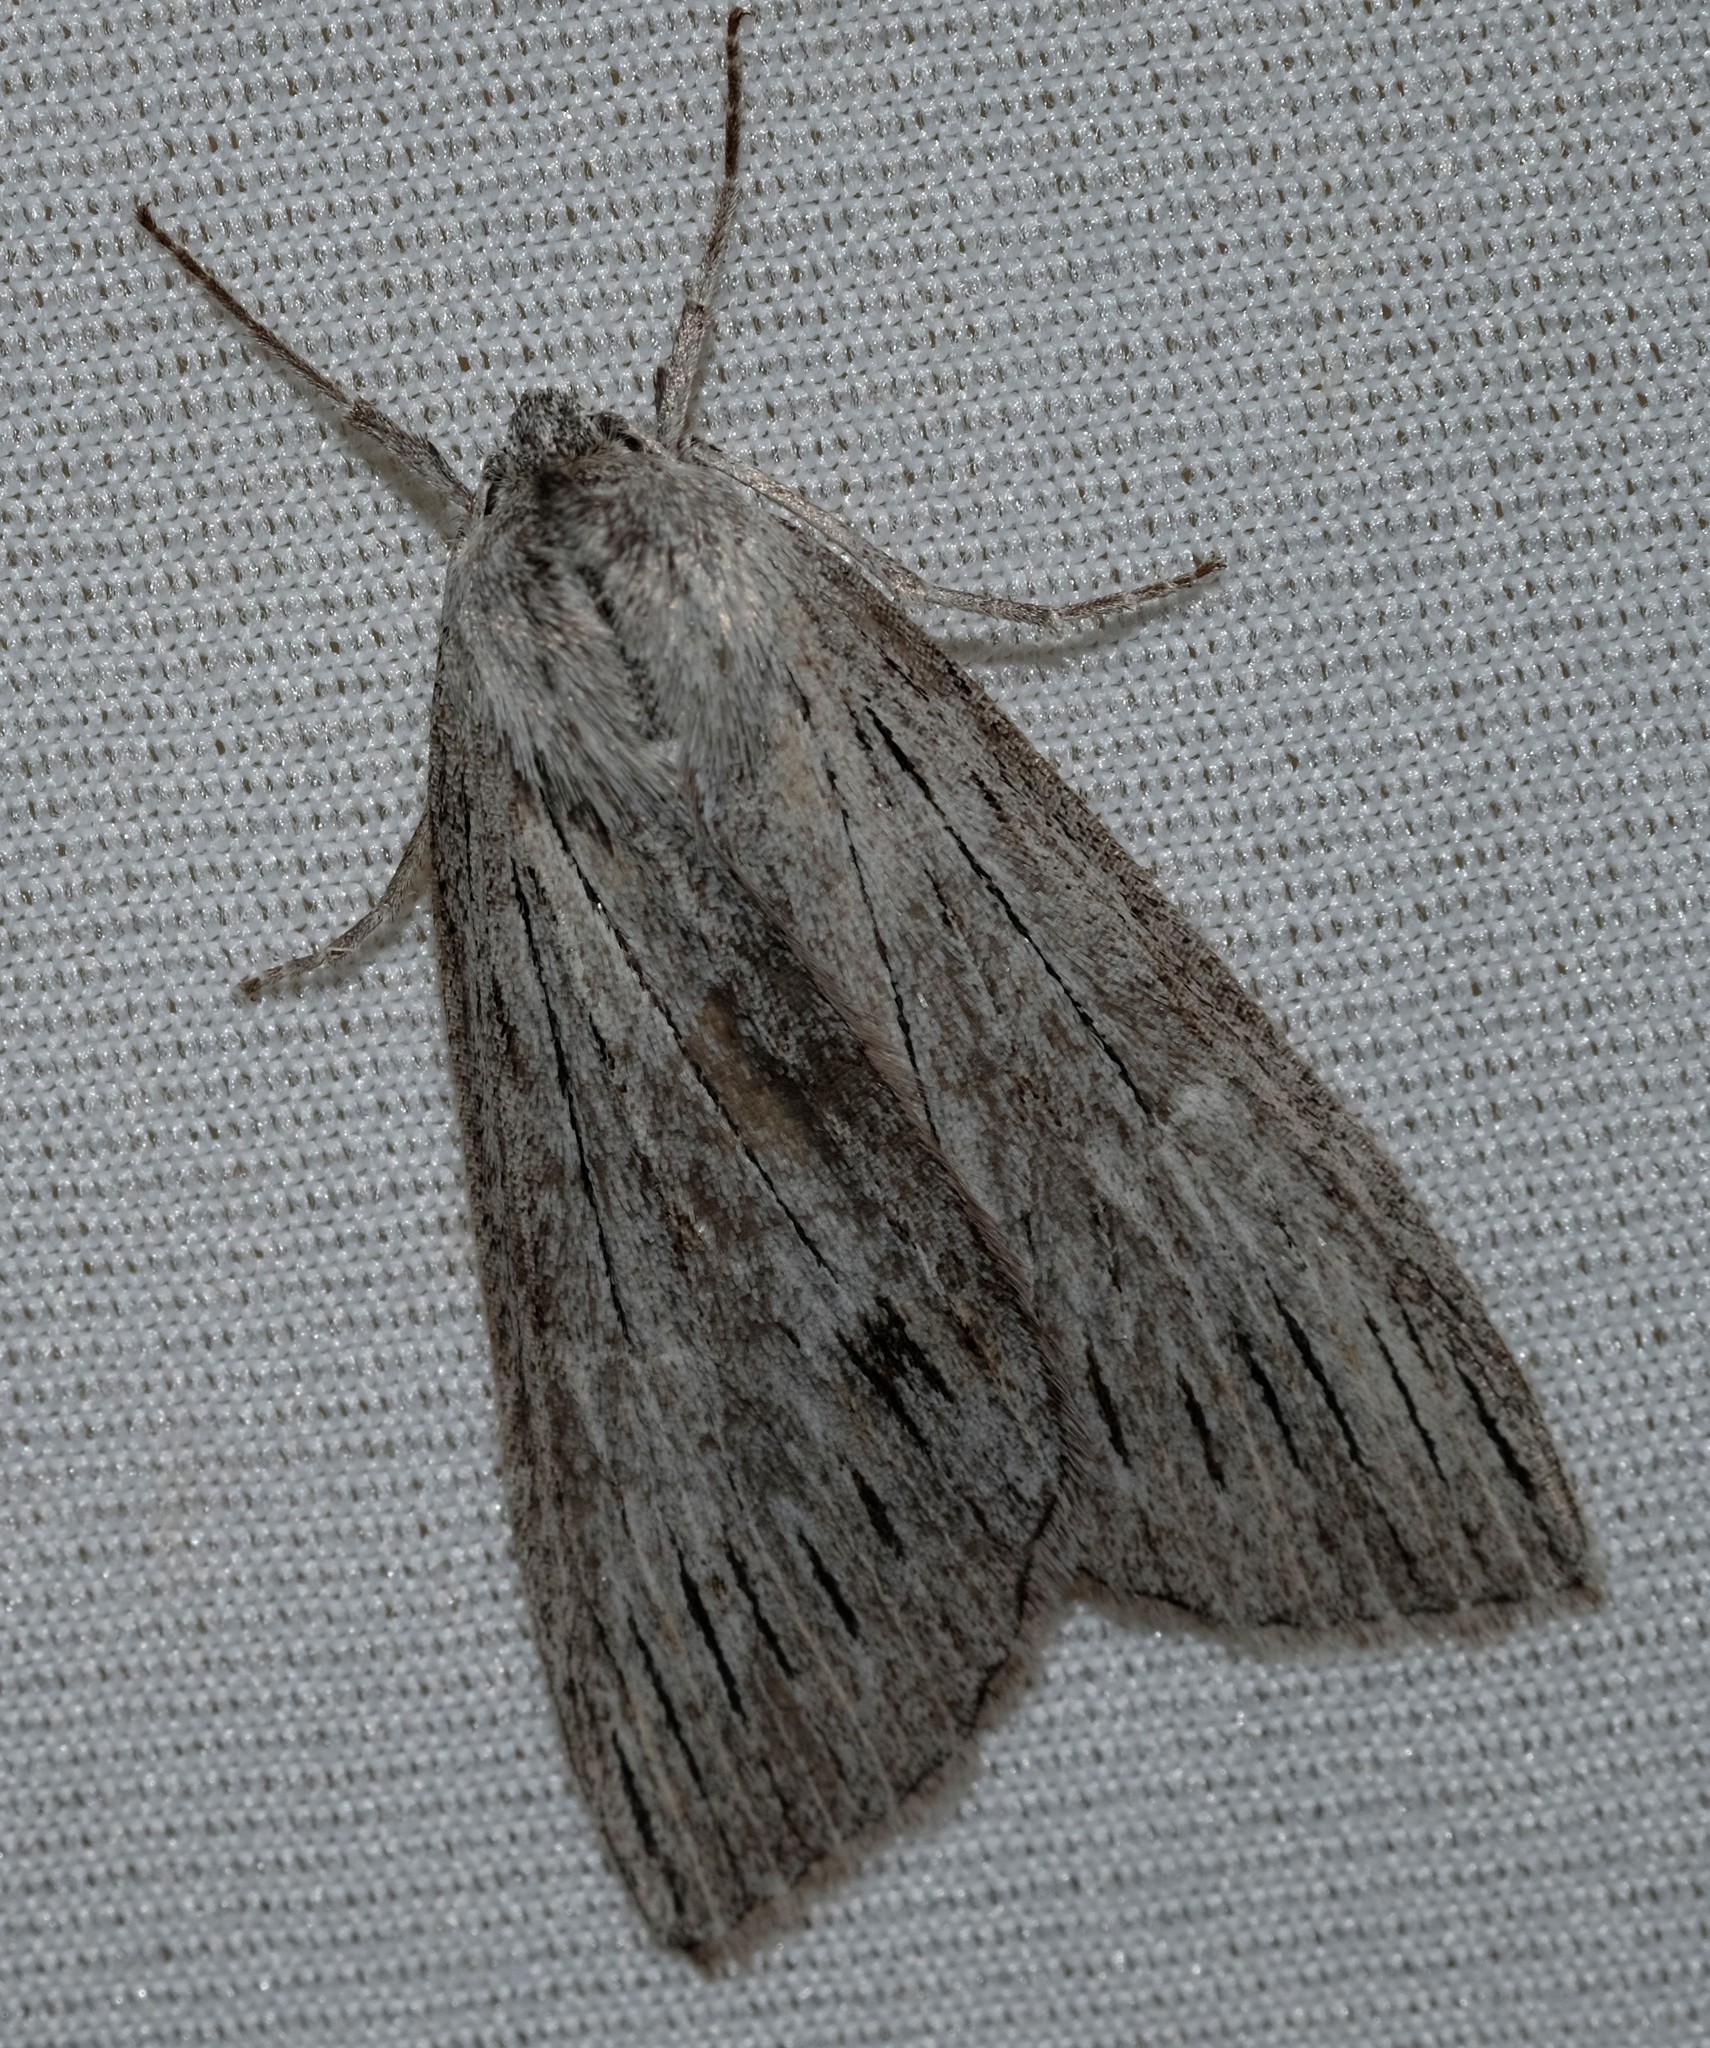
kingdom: Animalia
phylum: Arthropoda
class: Insecta
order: Lepidoptera
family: Geometridae
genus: Chlenias
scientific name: Chlenias stenosticha
